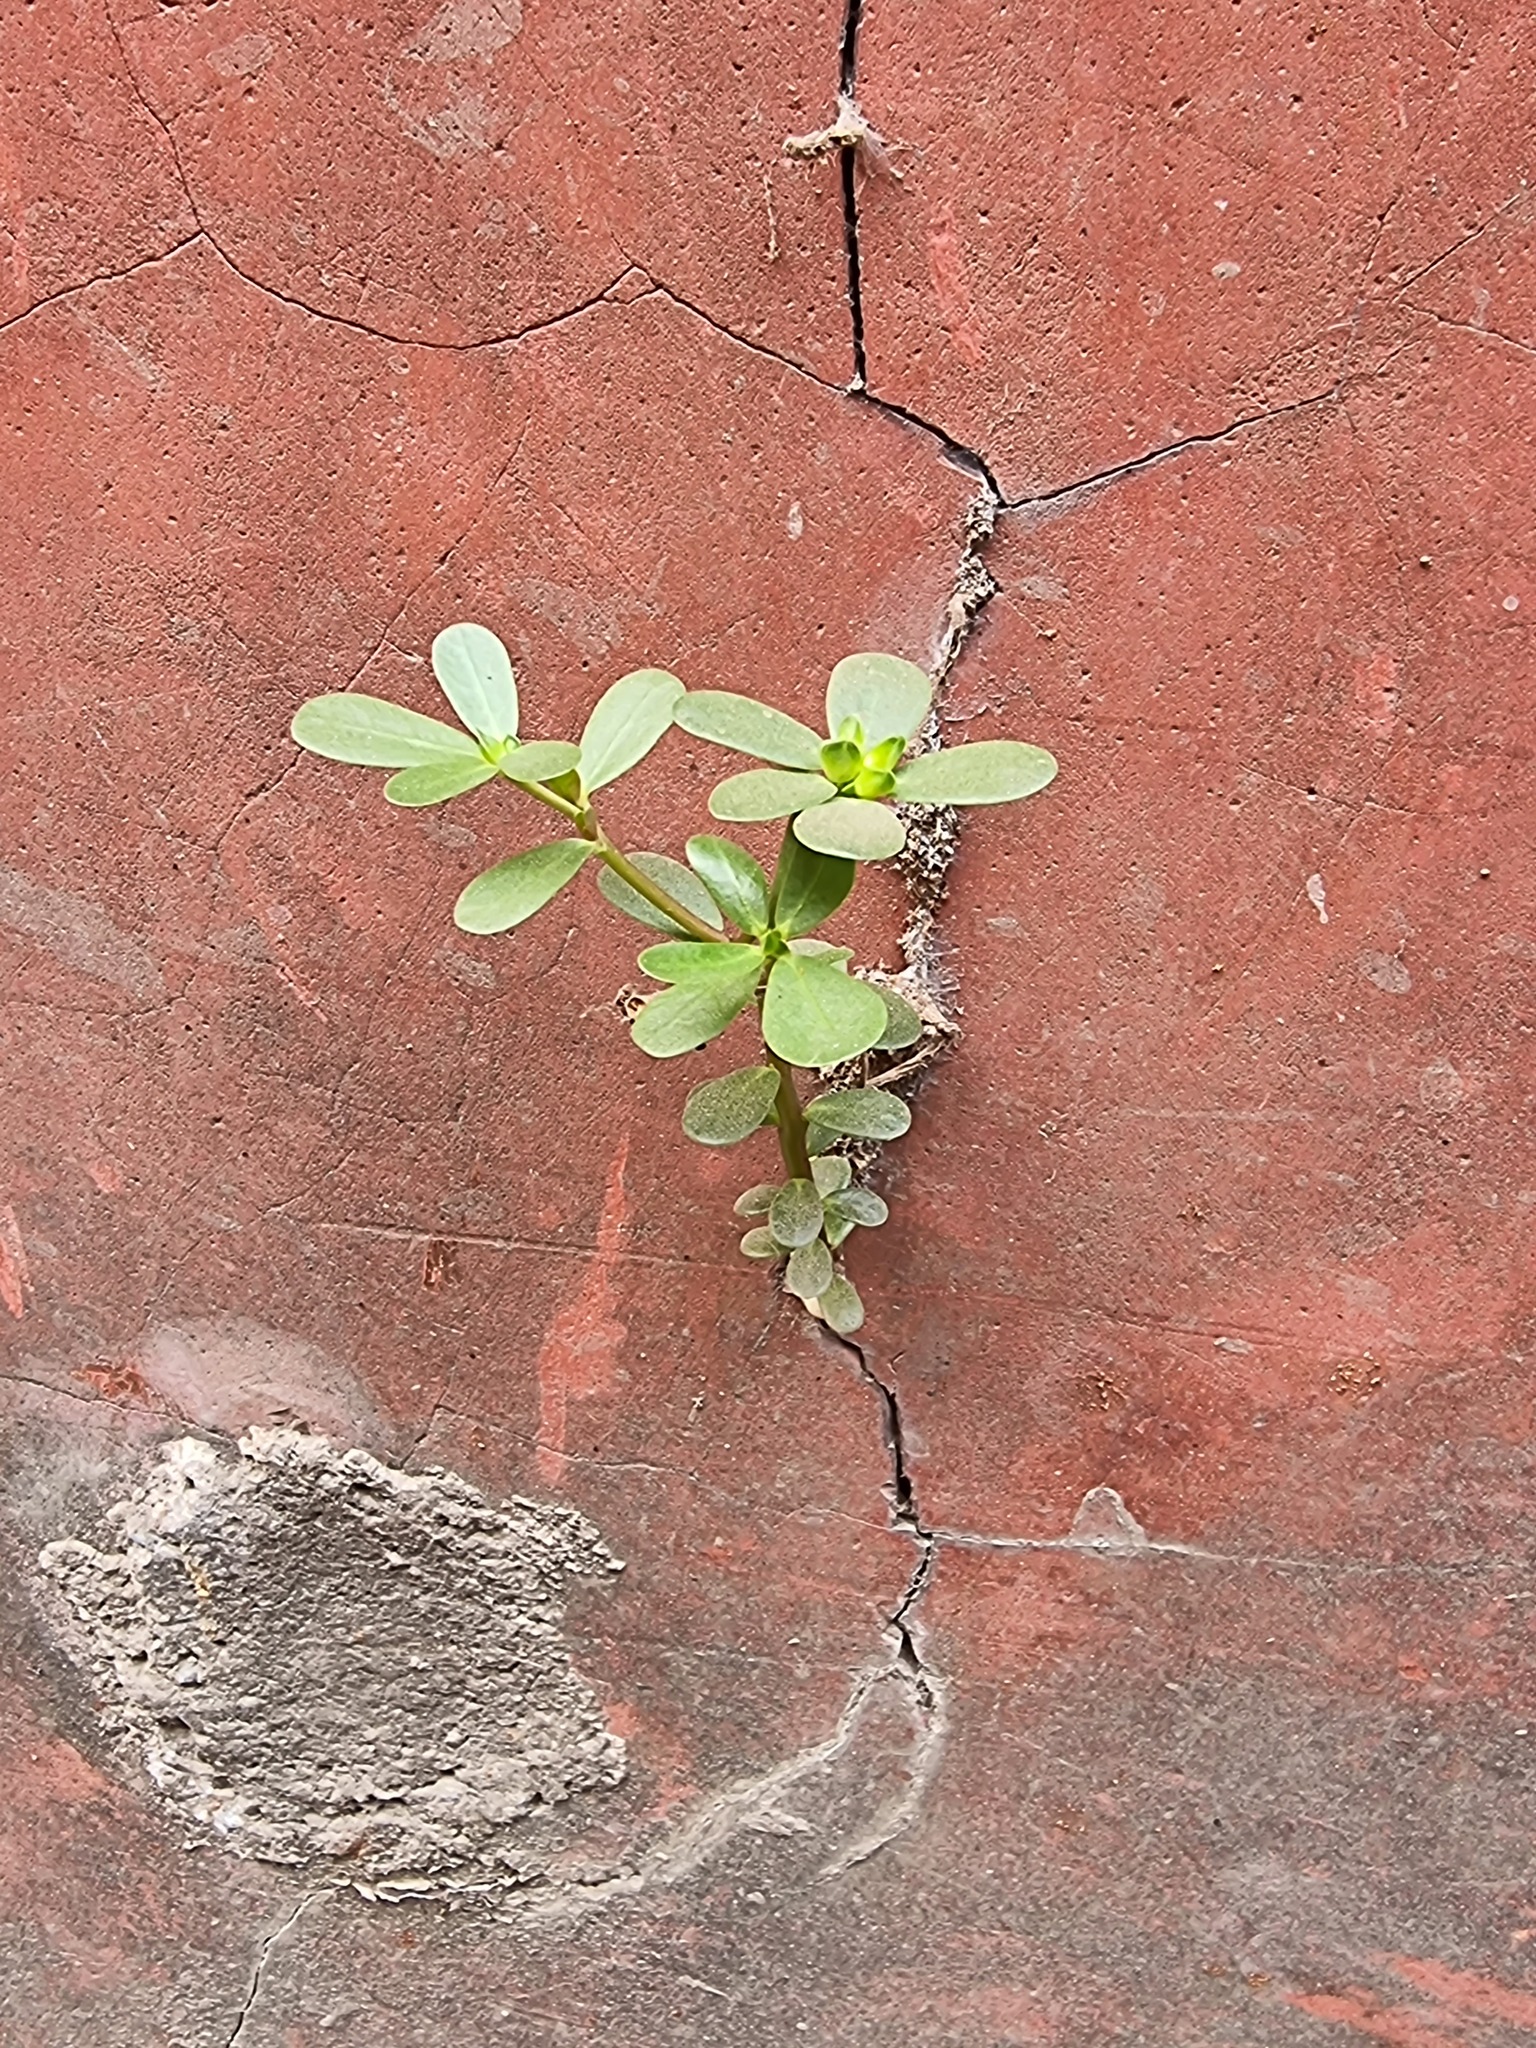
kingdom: Plantae
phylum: Tracheophyta
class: Magnoliopsida
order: Caryophyllales
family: Portulacaceae
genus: Portulaca
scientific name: Portulaca oleracea
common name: Common purslane
